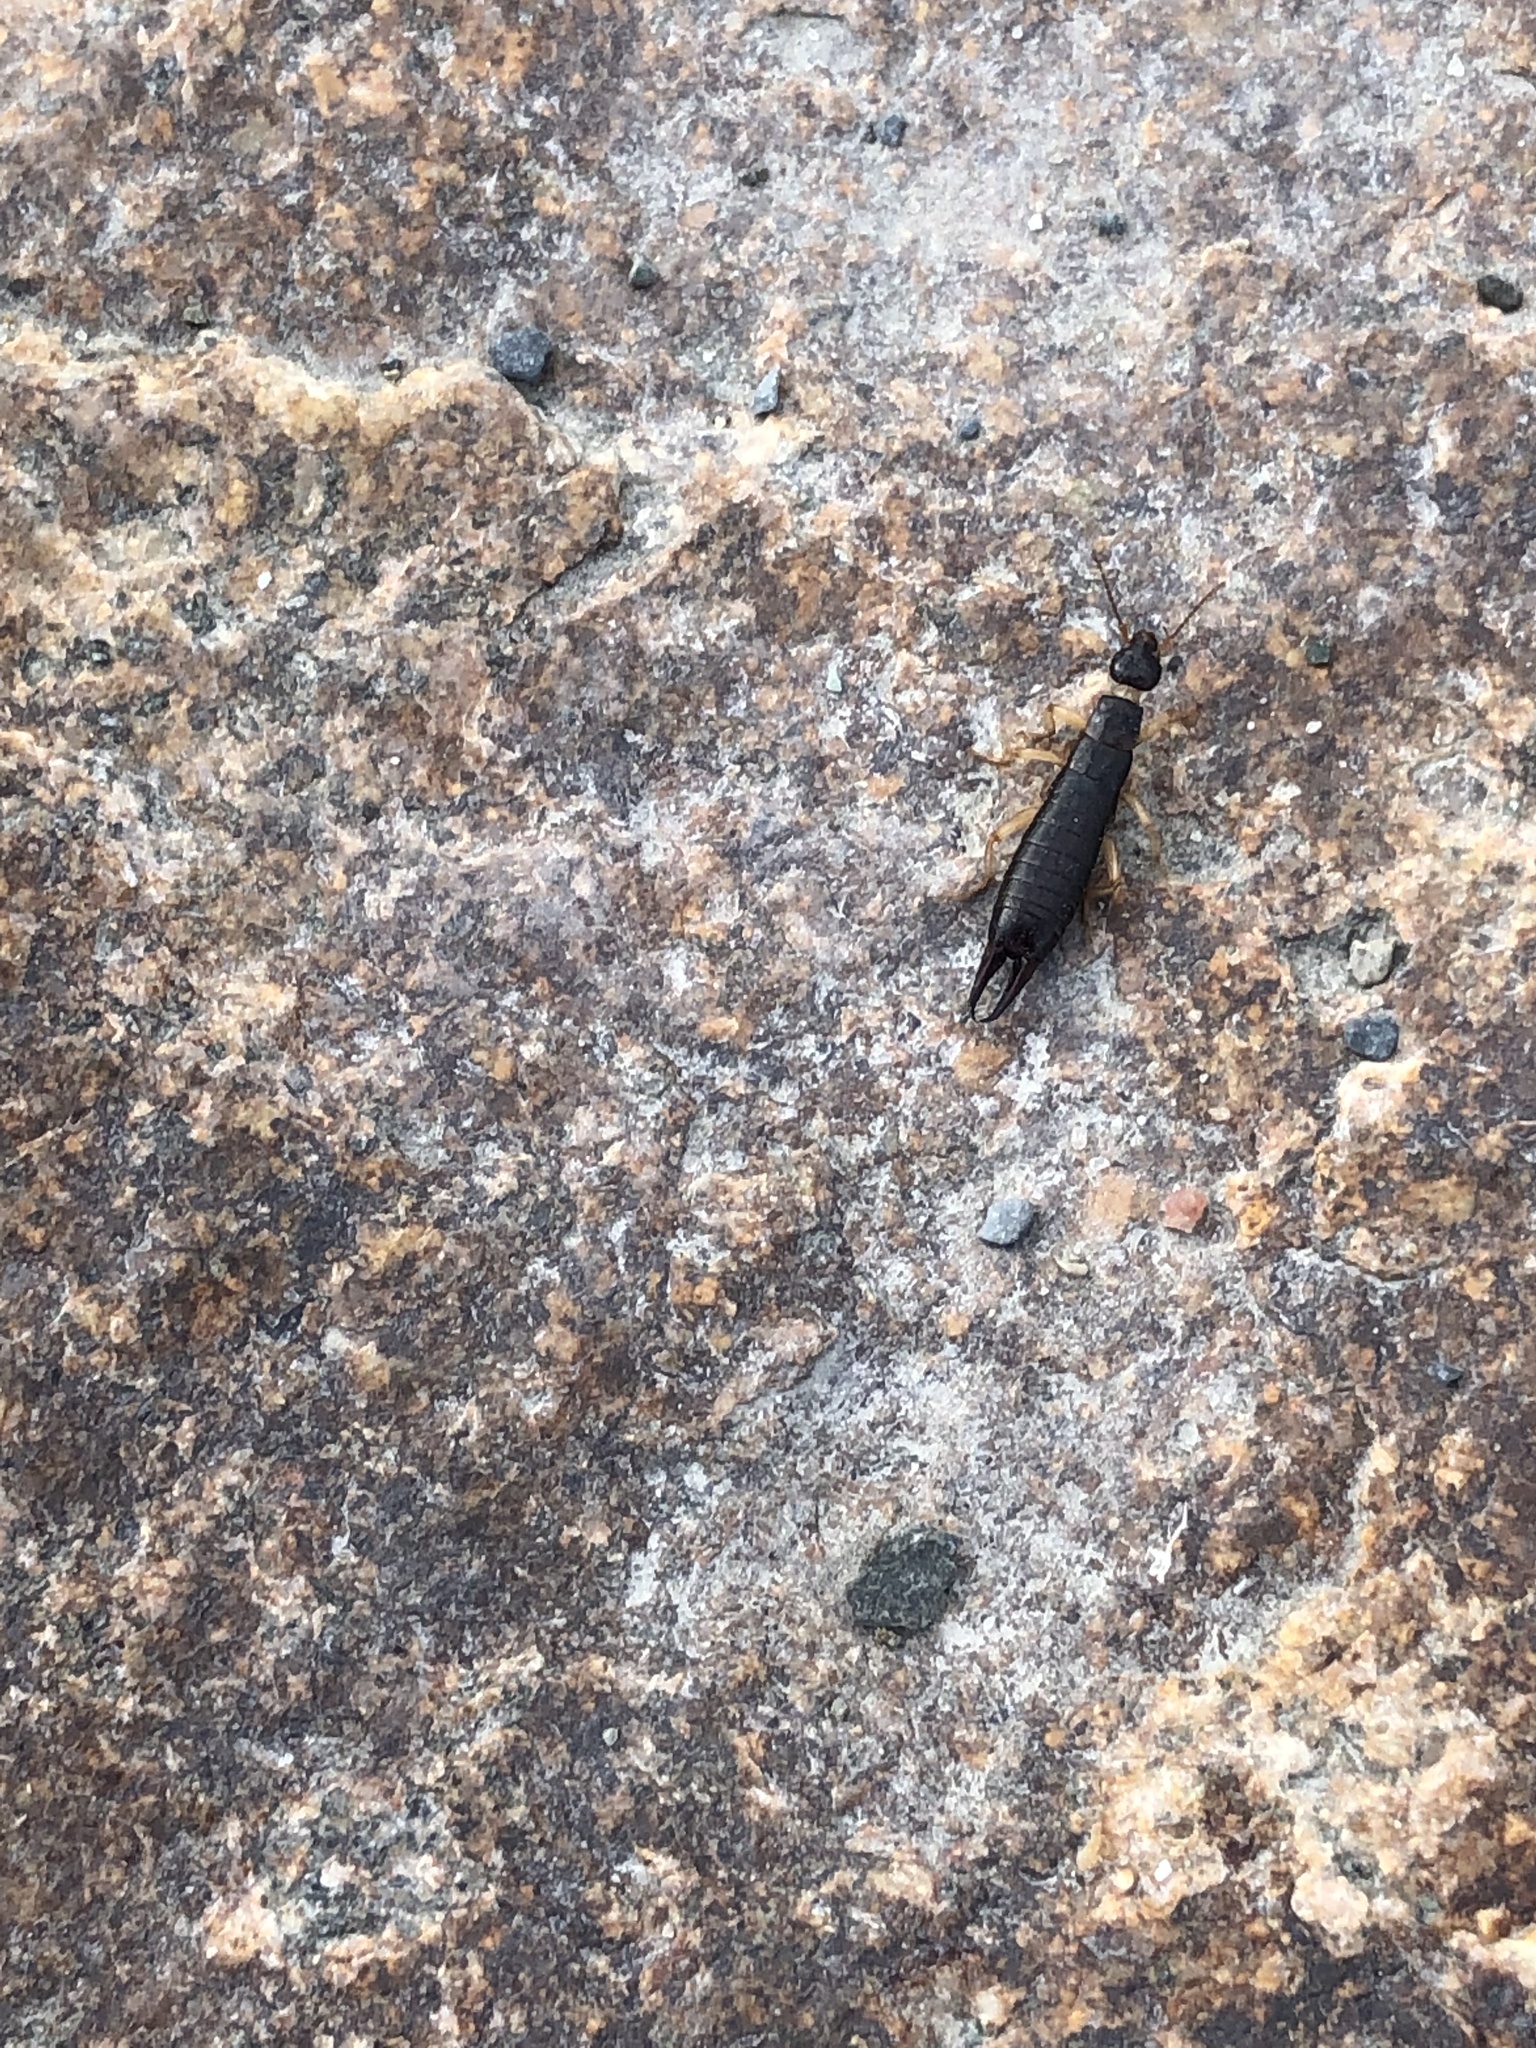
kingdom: Animalia
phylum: Arthropoda
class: Insecta
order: Dermaptera
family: Anisolabididae
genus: Anisolabis
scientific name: Anisolabis maritima
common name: Maritime earwig
